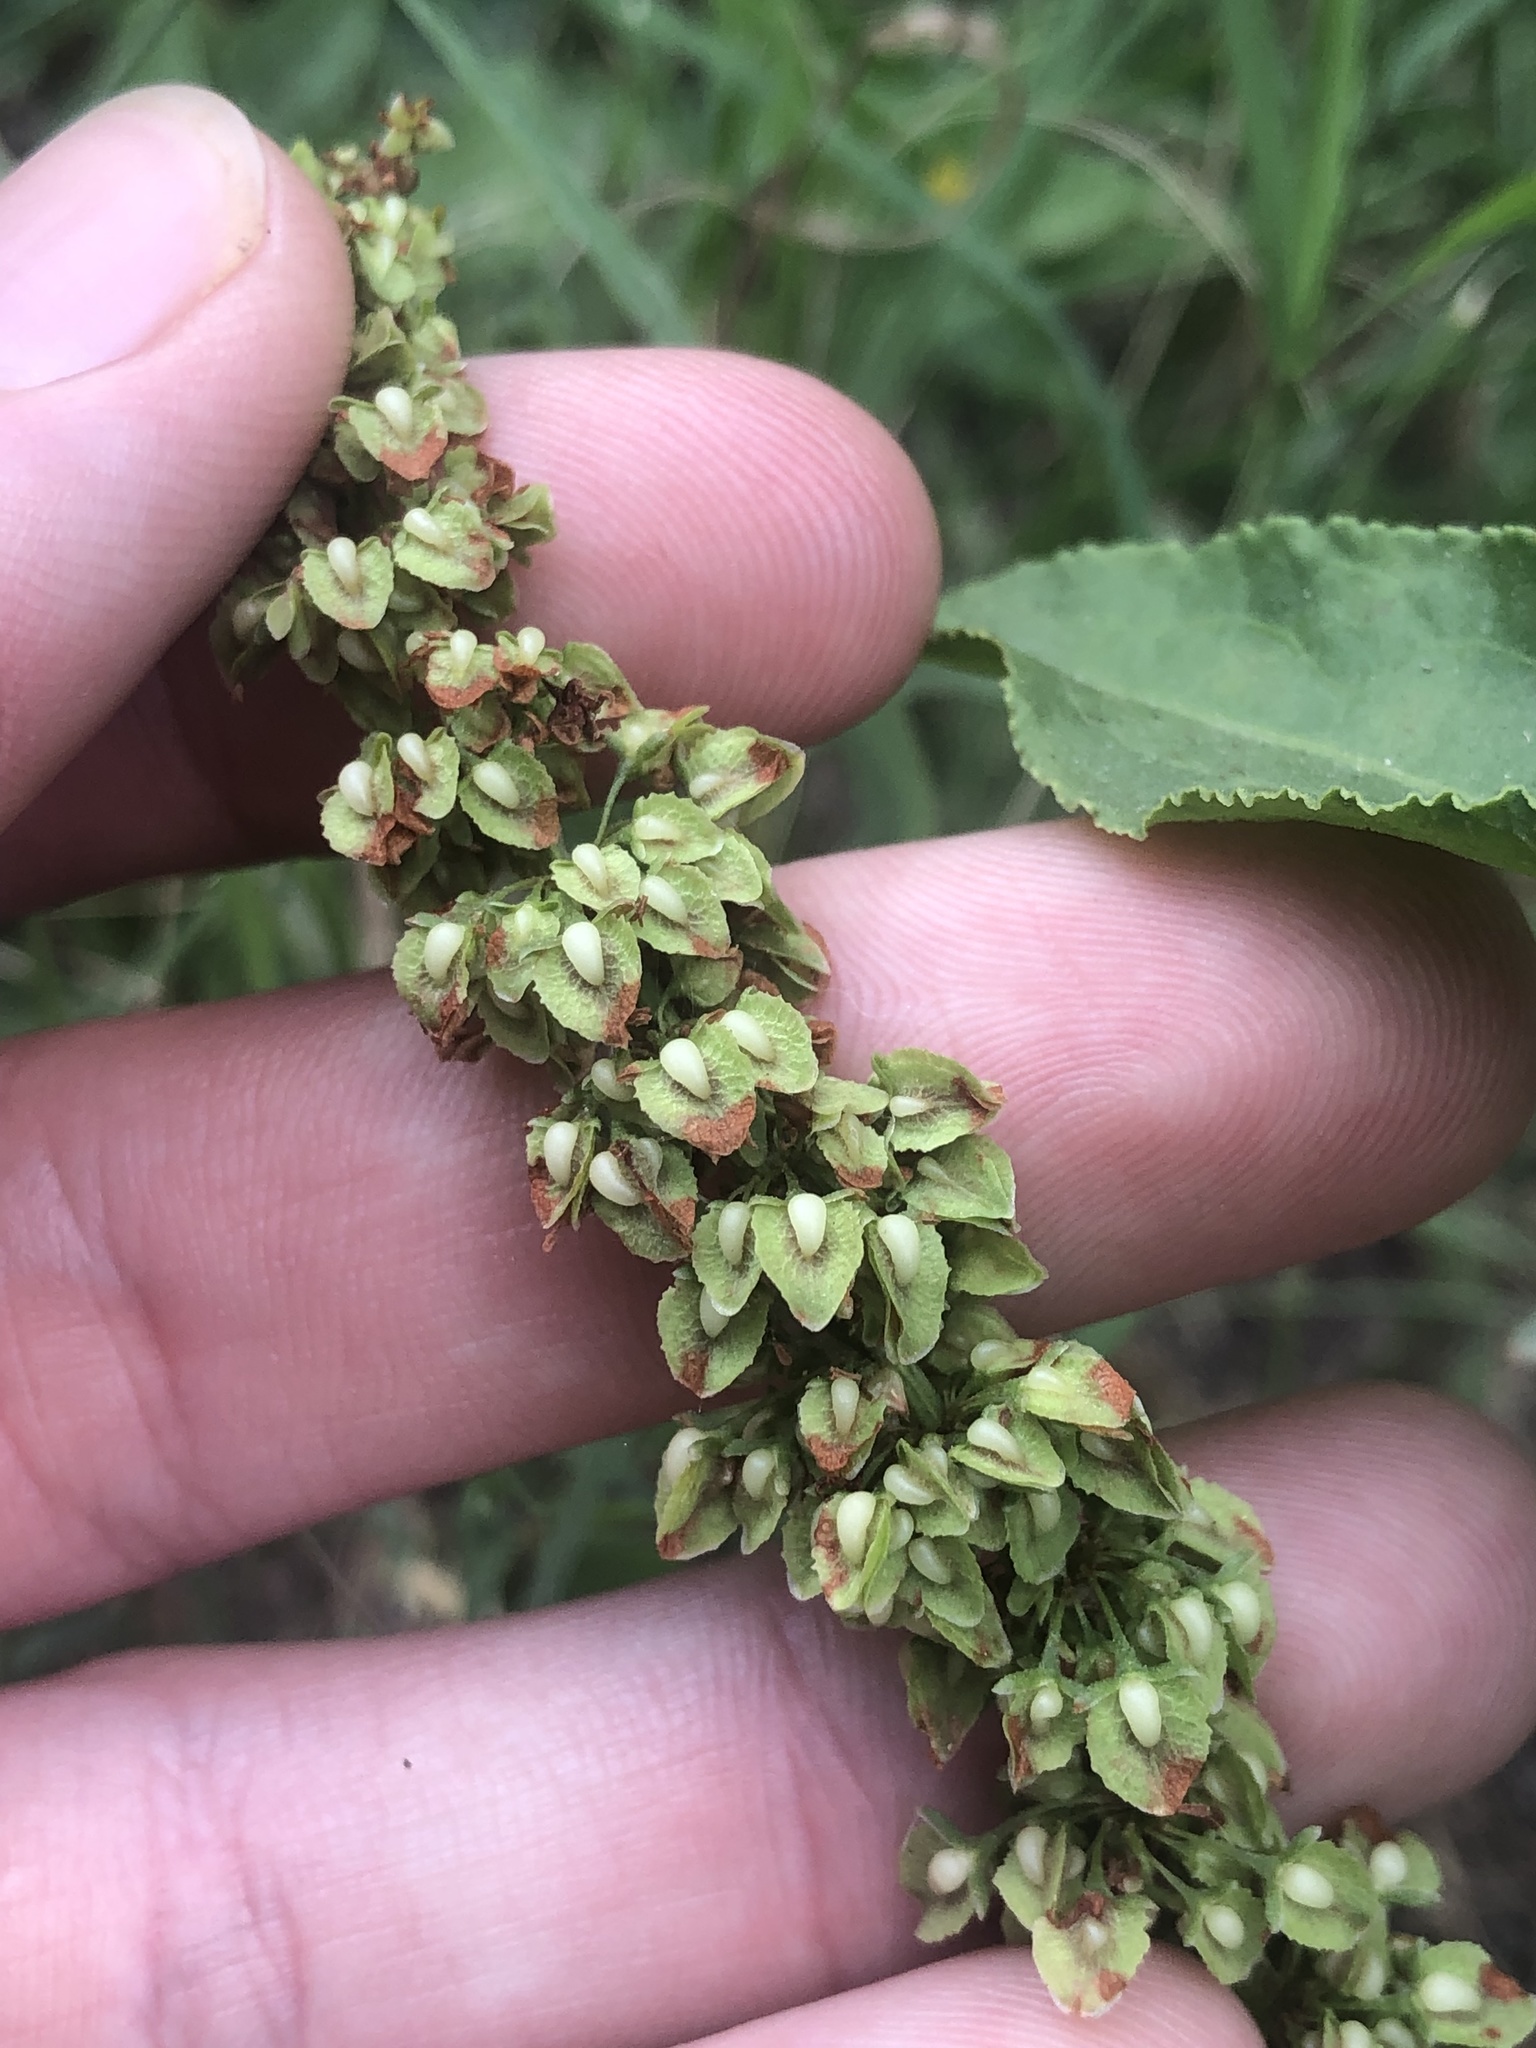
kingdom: Plantae
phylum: Tracheophyta
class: Magnoliopsida
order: Caryophyllales
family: Polygonaceae
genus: Rumex
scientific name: Rumex crispus
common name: Curled dock
